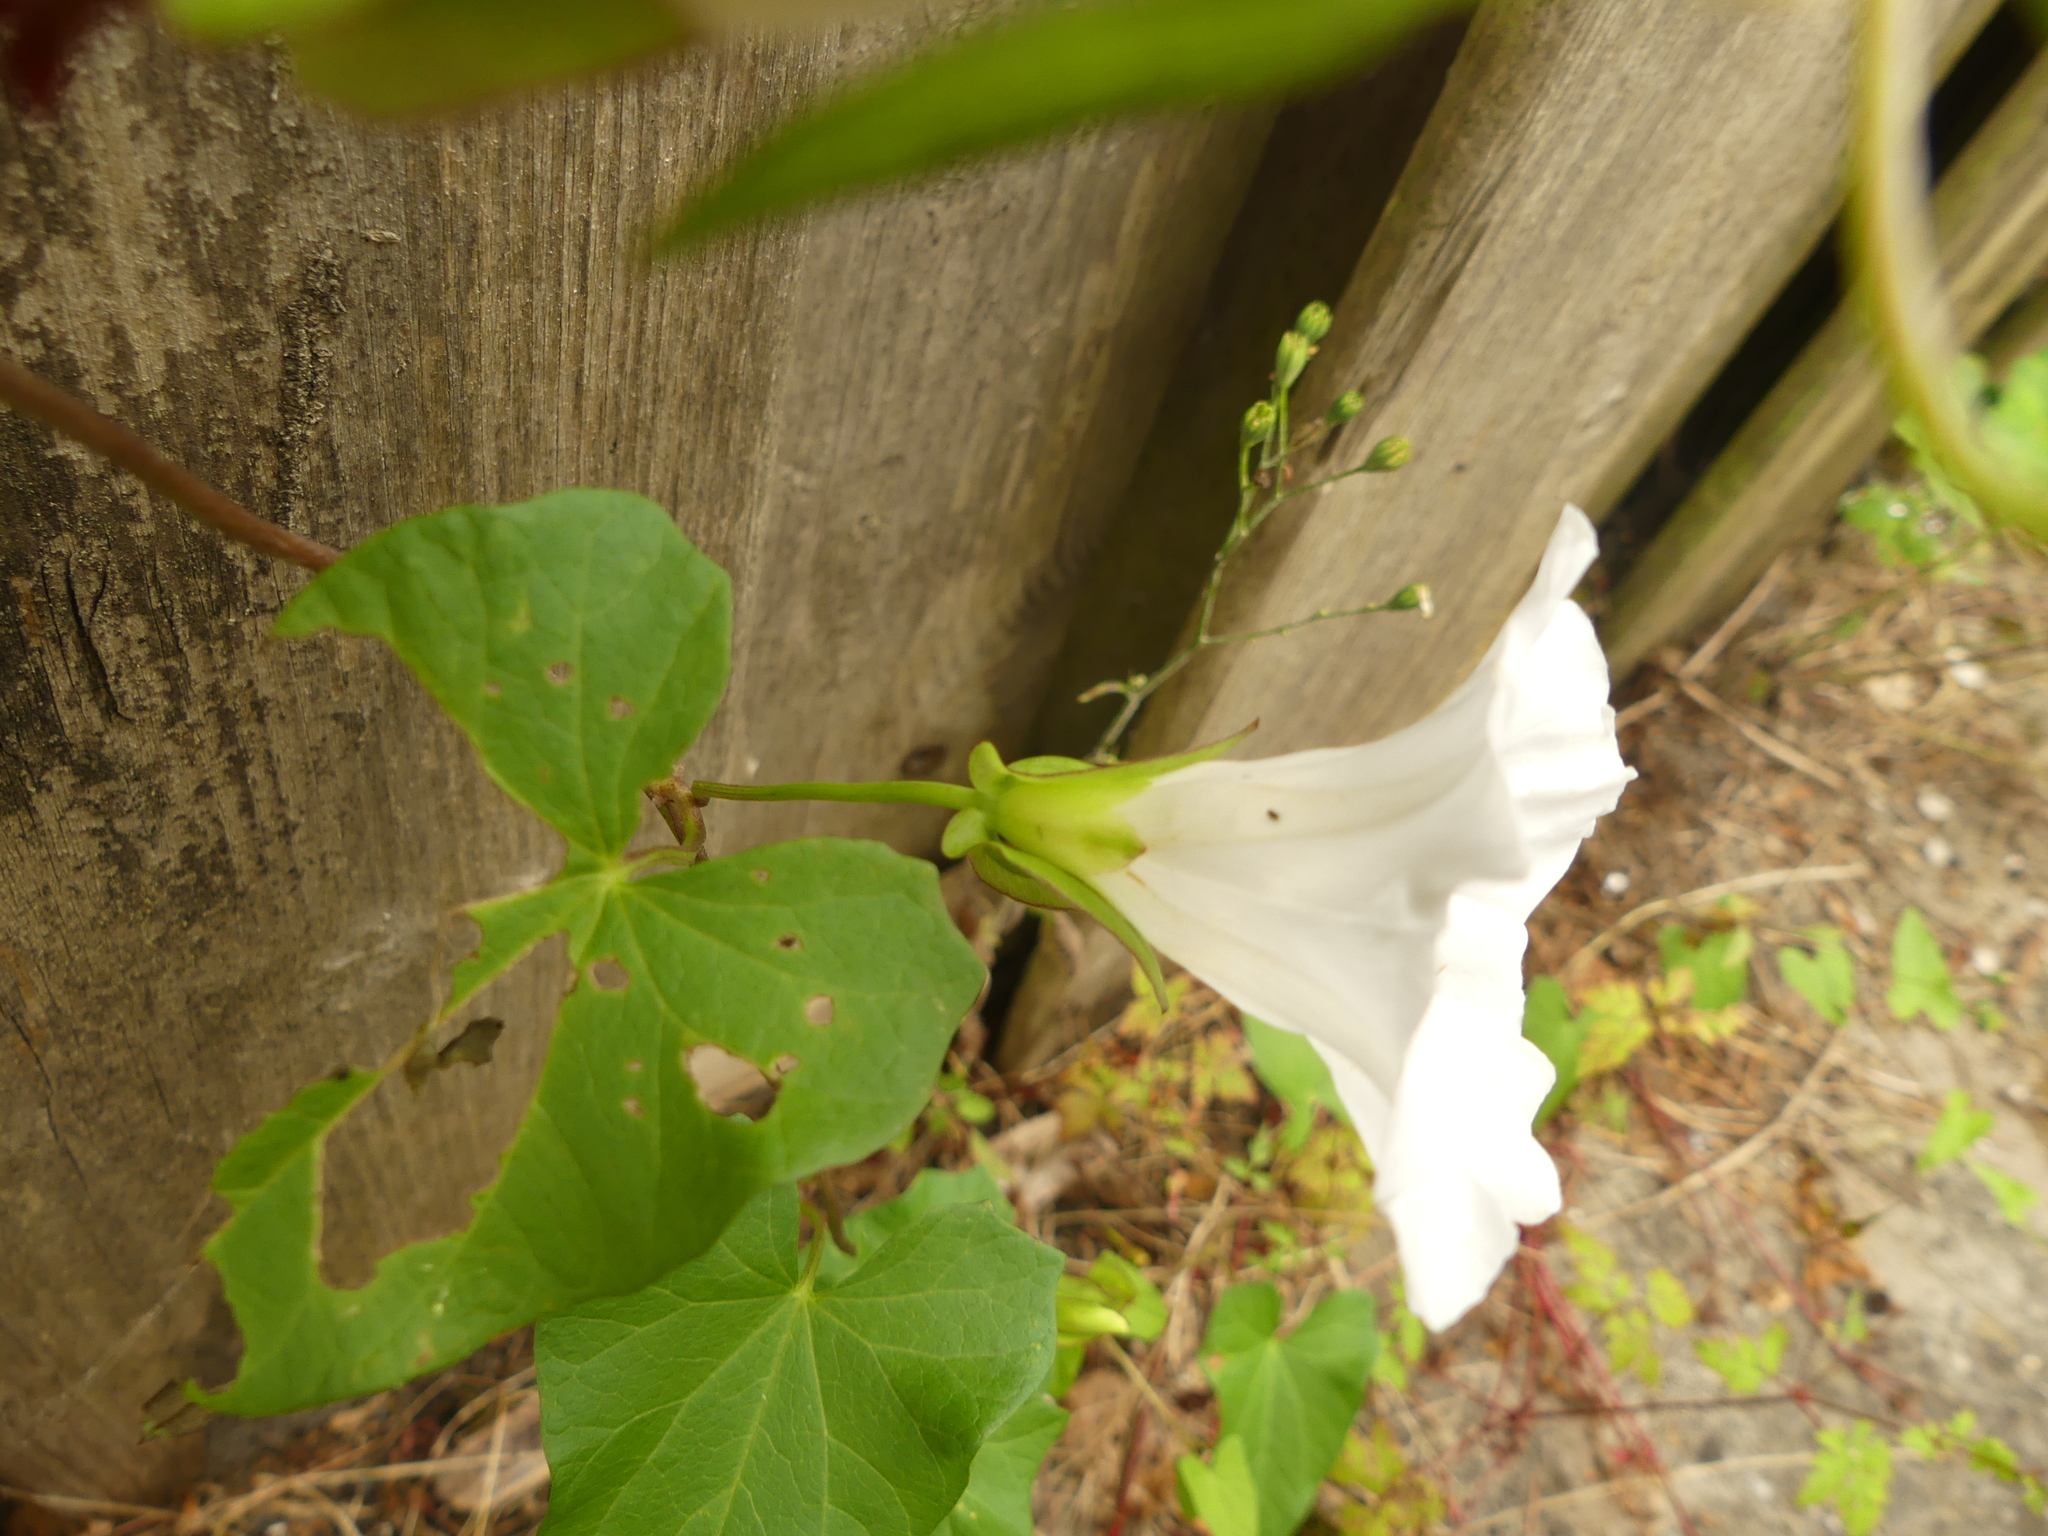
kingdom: Plantae
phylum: Tracheophyta
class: Magnoliopsida
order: Solanales
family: Convolvulaceae
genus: Calystegia
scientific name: Calystegia sepium
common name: Hedge bindweed
